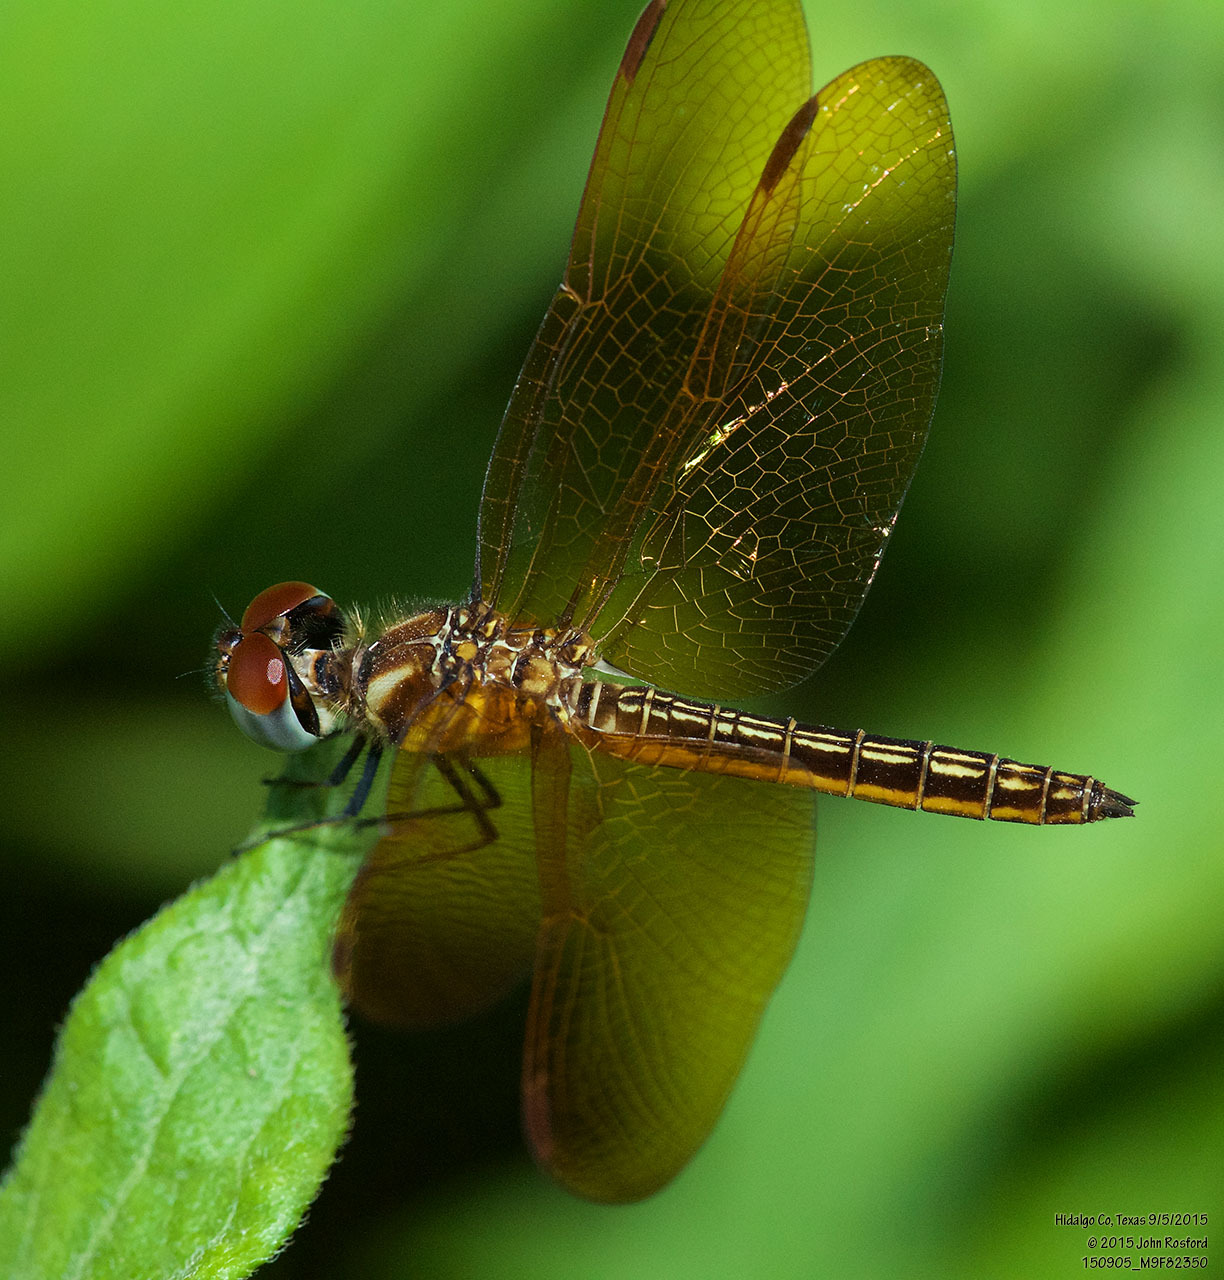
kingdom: Animalia
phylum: Arthropoda
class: Insecta
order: Odonata
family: Libellulidae
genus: Perithemis
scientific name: Perithemis domitia
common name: Slough amberwing
